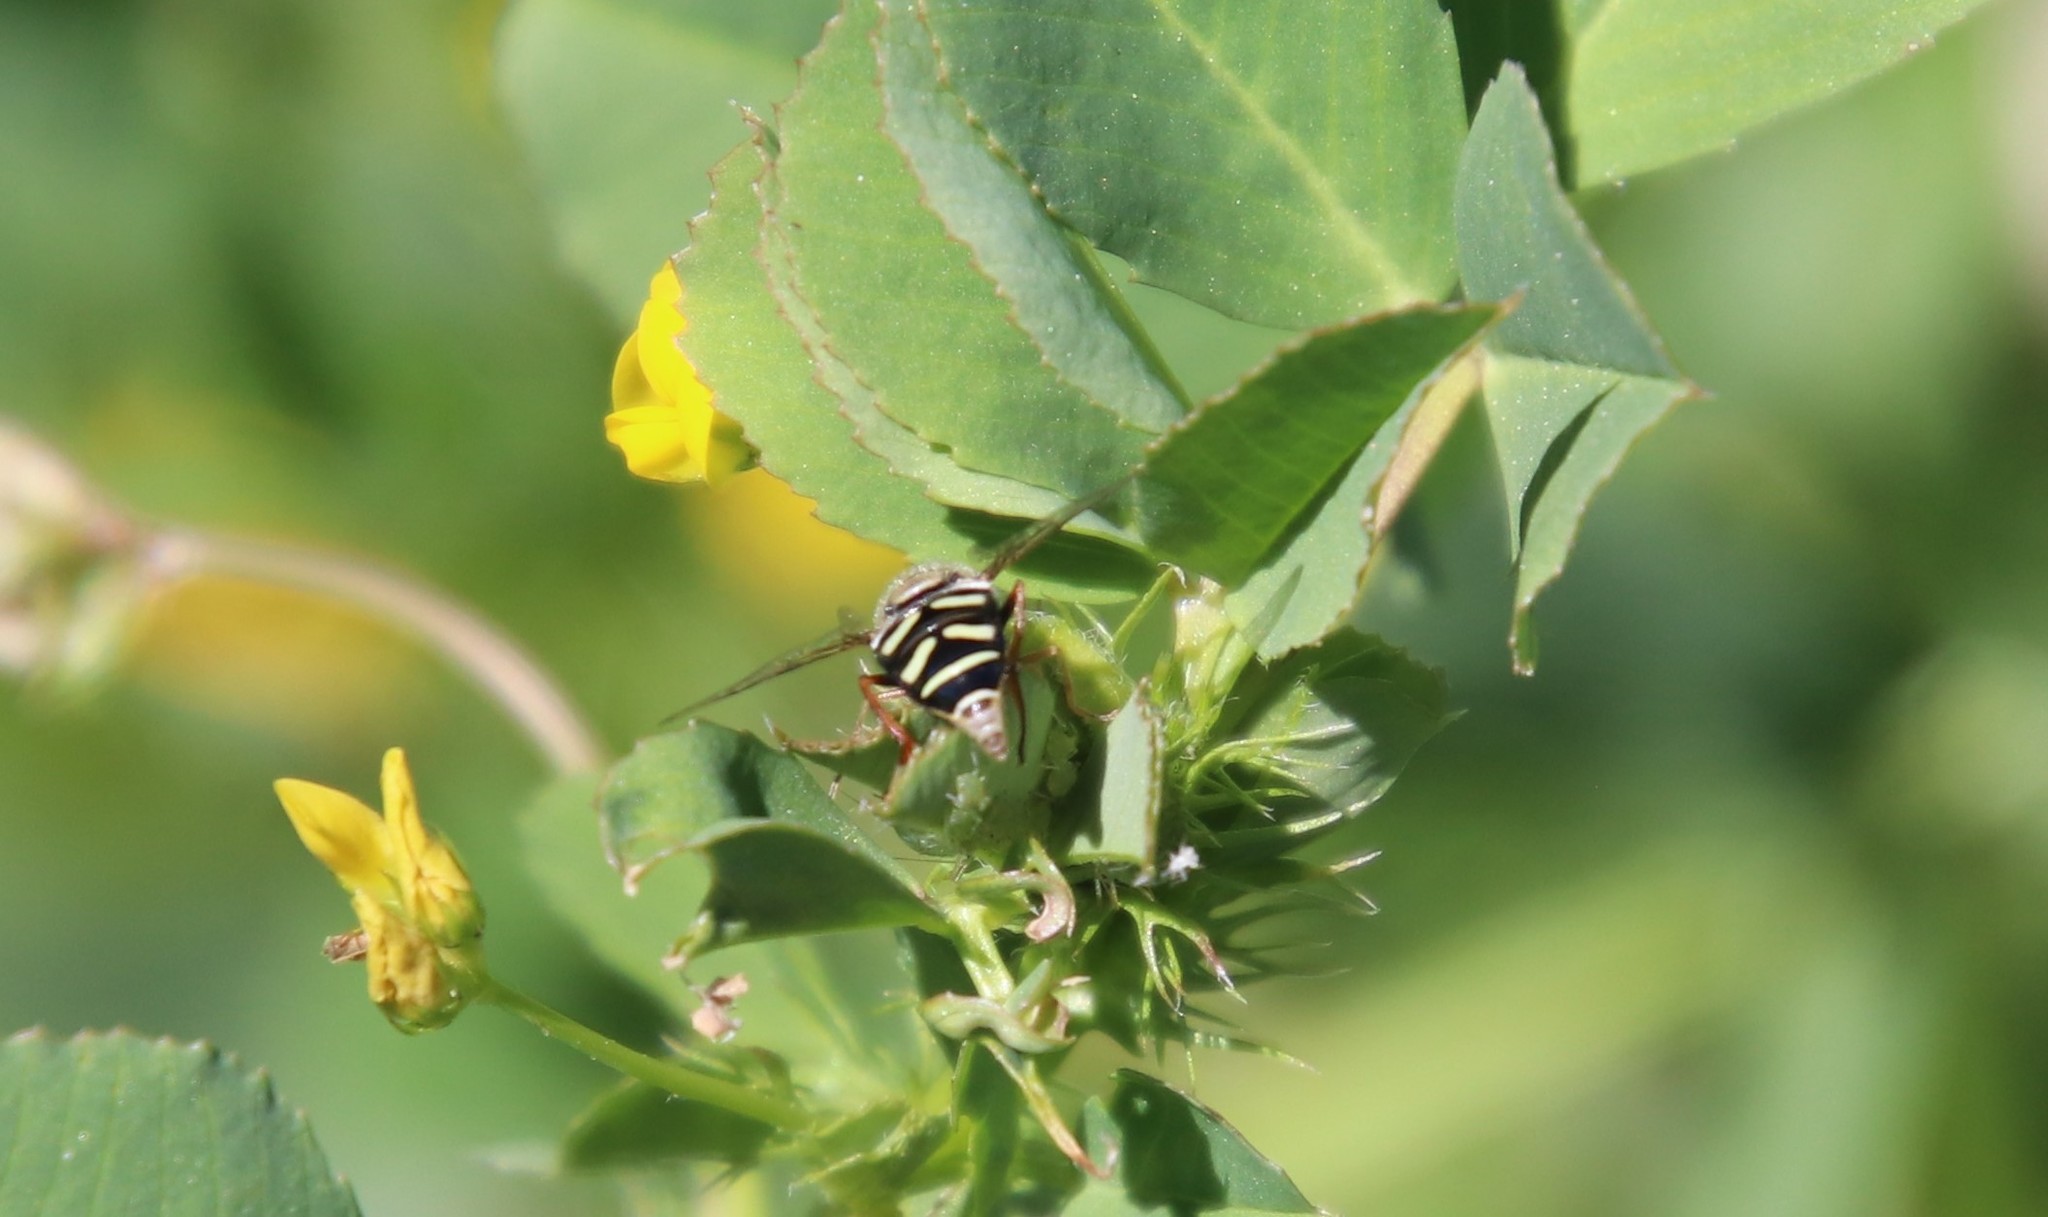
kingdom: Animalia
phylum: Arthropoda
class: Insecta
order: Diptera
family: Syrphidae
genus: Eupeodes
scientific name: Eupeodes volucris
